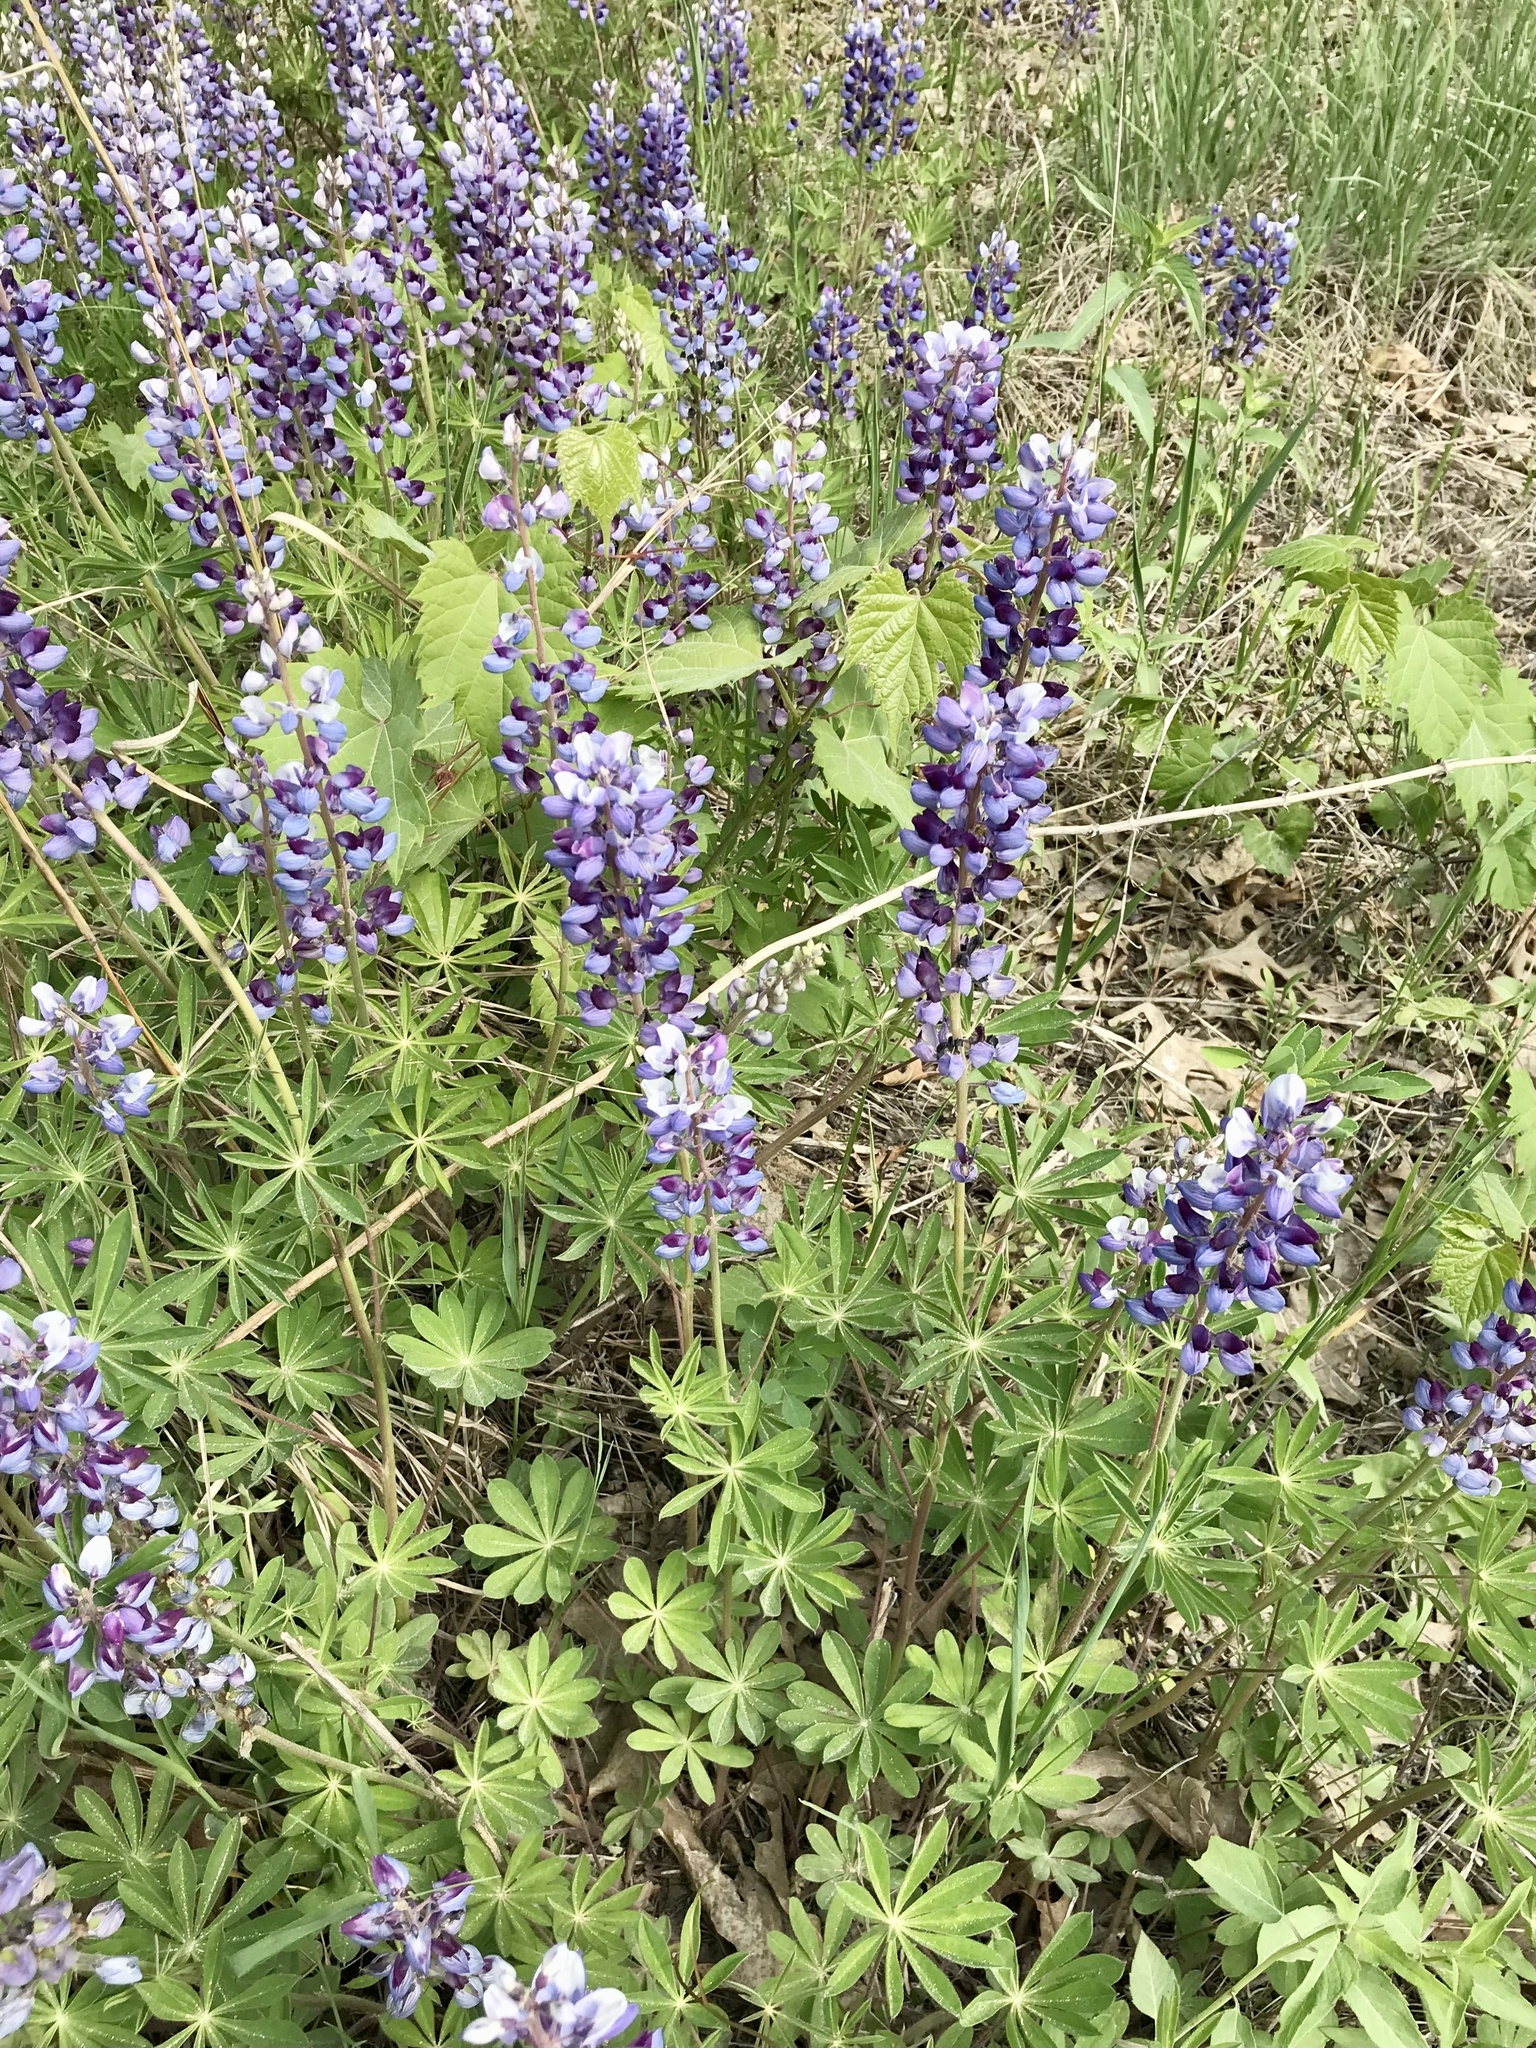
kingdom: Plantae
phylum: Tracheophyta
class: Magnoliopsida
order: Fabales
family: Fabaceae
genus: Lupinus
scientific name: Lupinus perennis
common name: Sundial lupine
